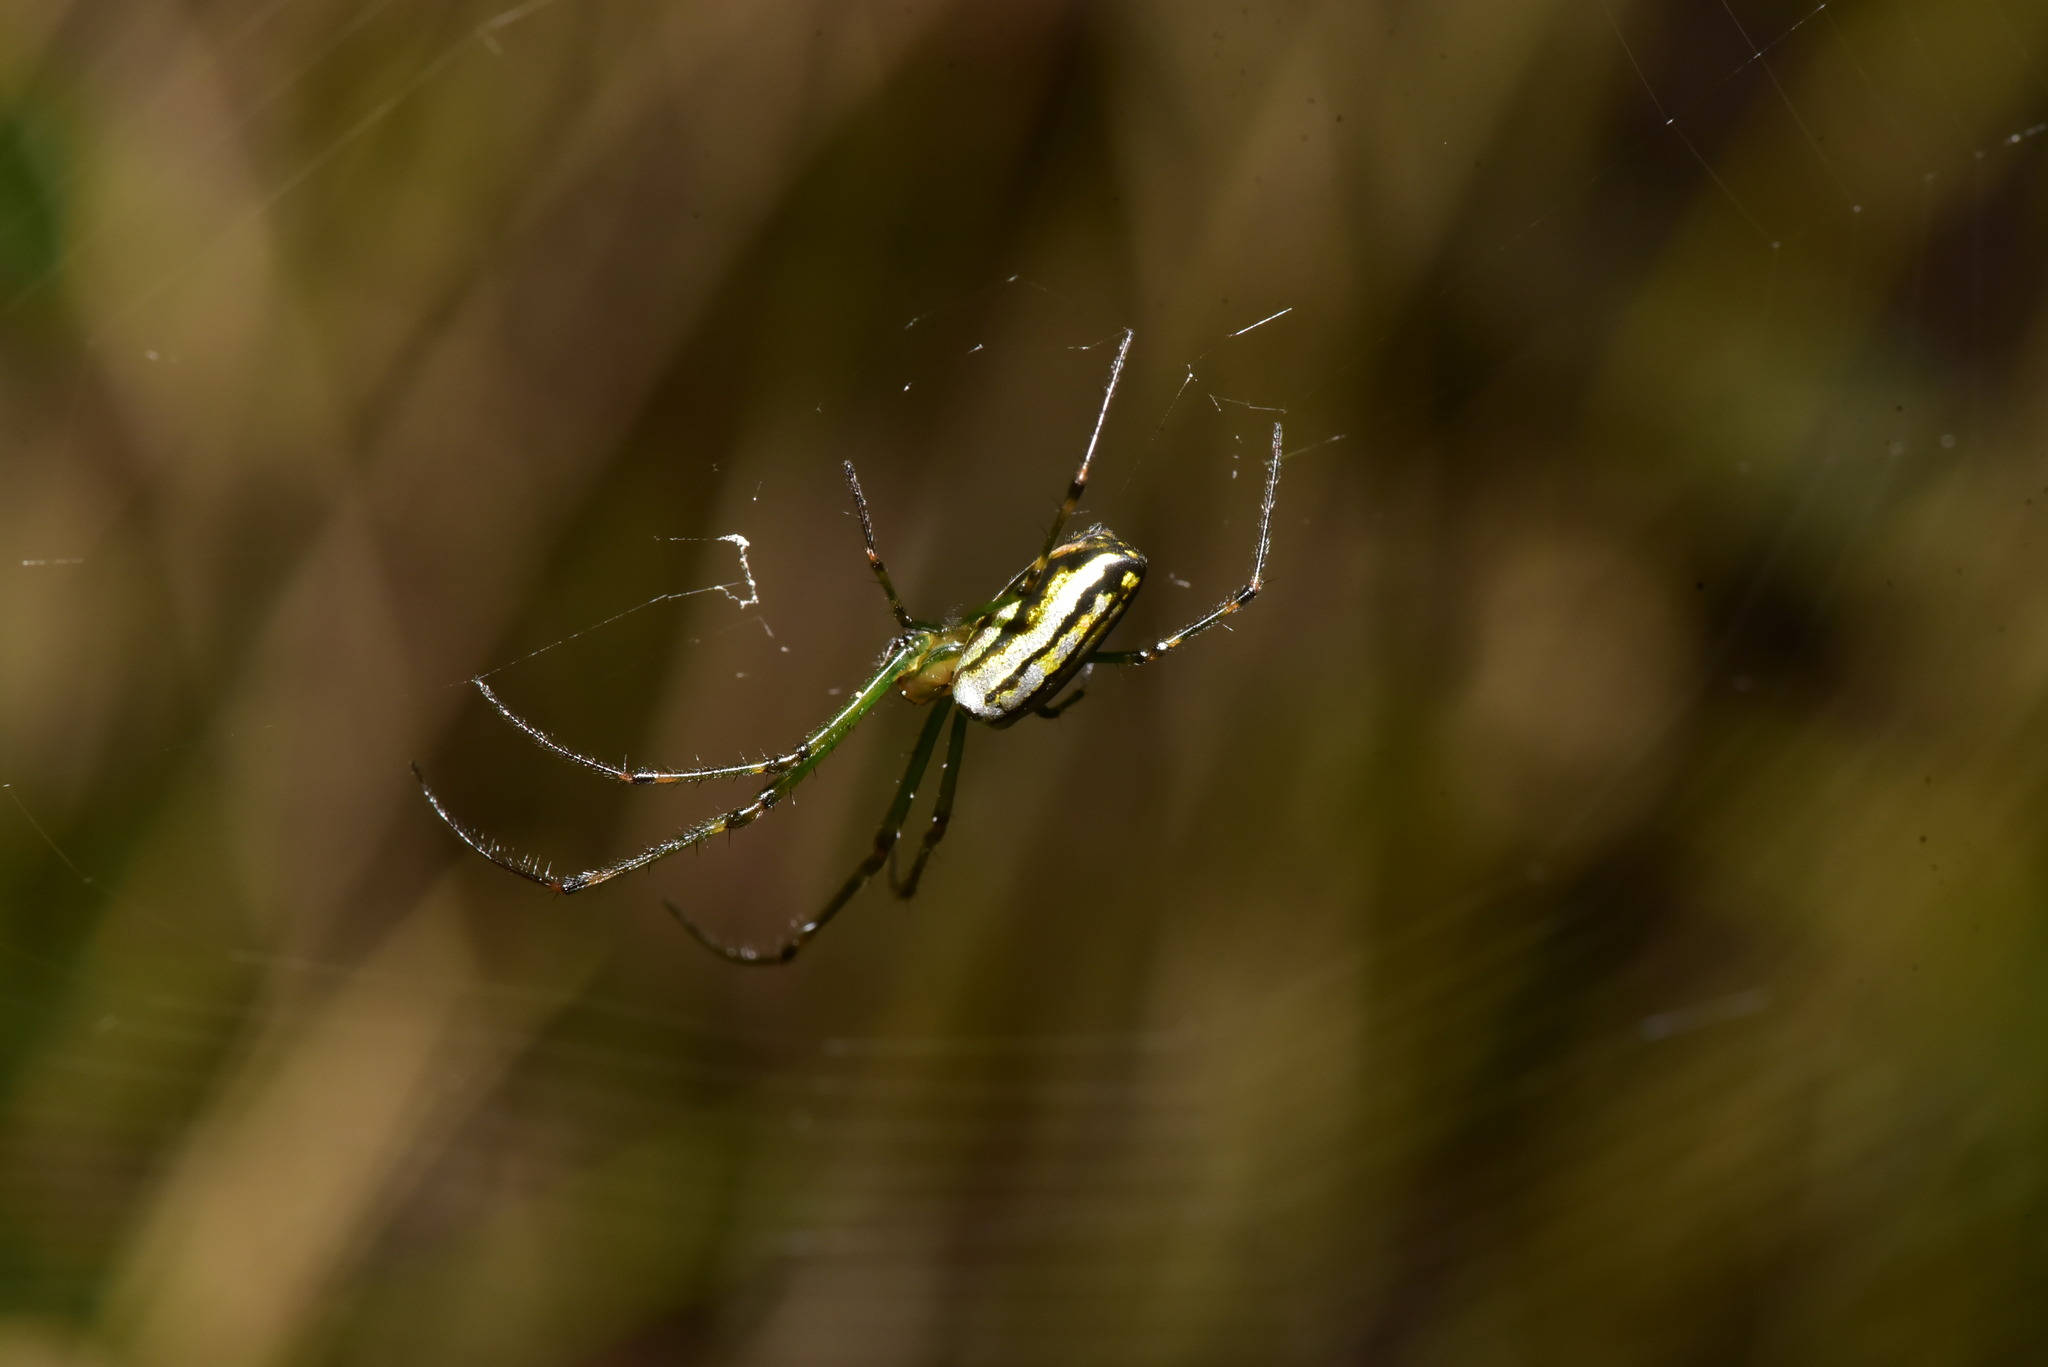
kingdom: Animalia
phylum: Arthropoda
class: Arachnida
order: Araneae
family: Tetragnathidae
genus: Leucauge
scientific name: Leucauge blanda
